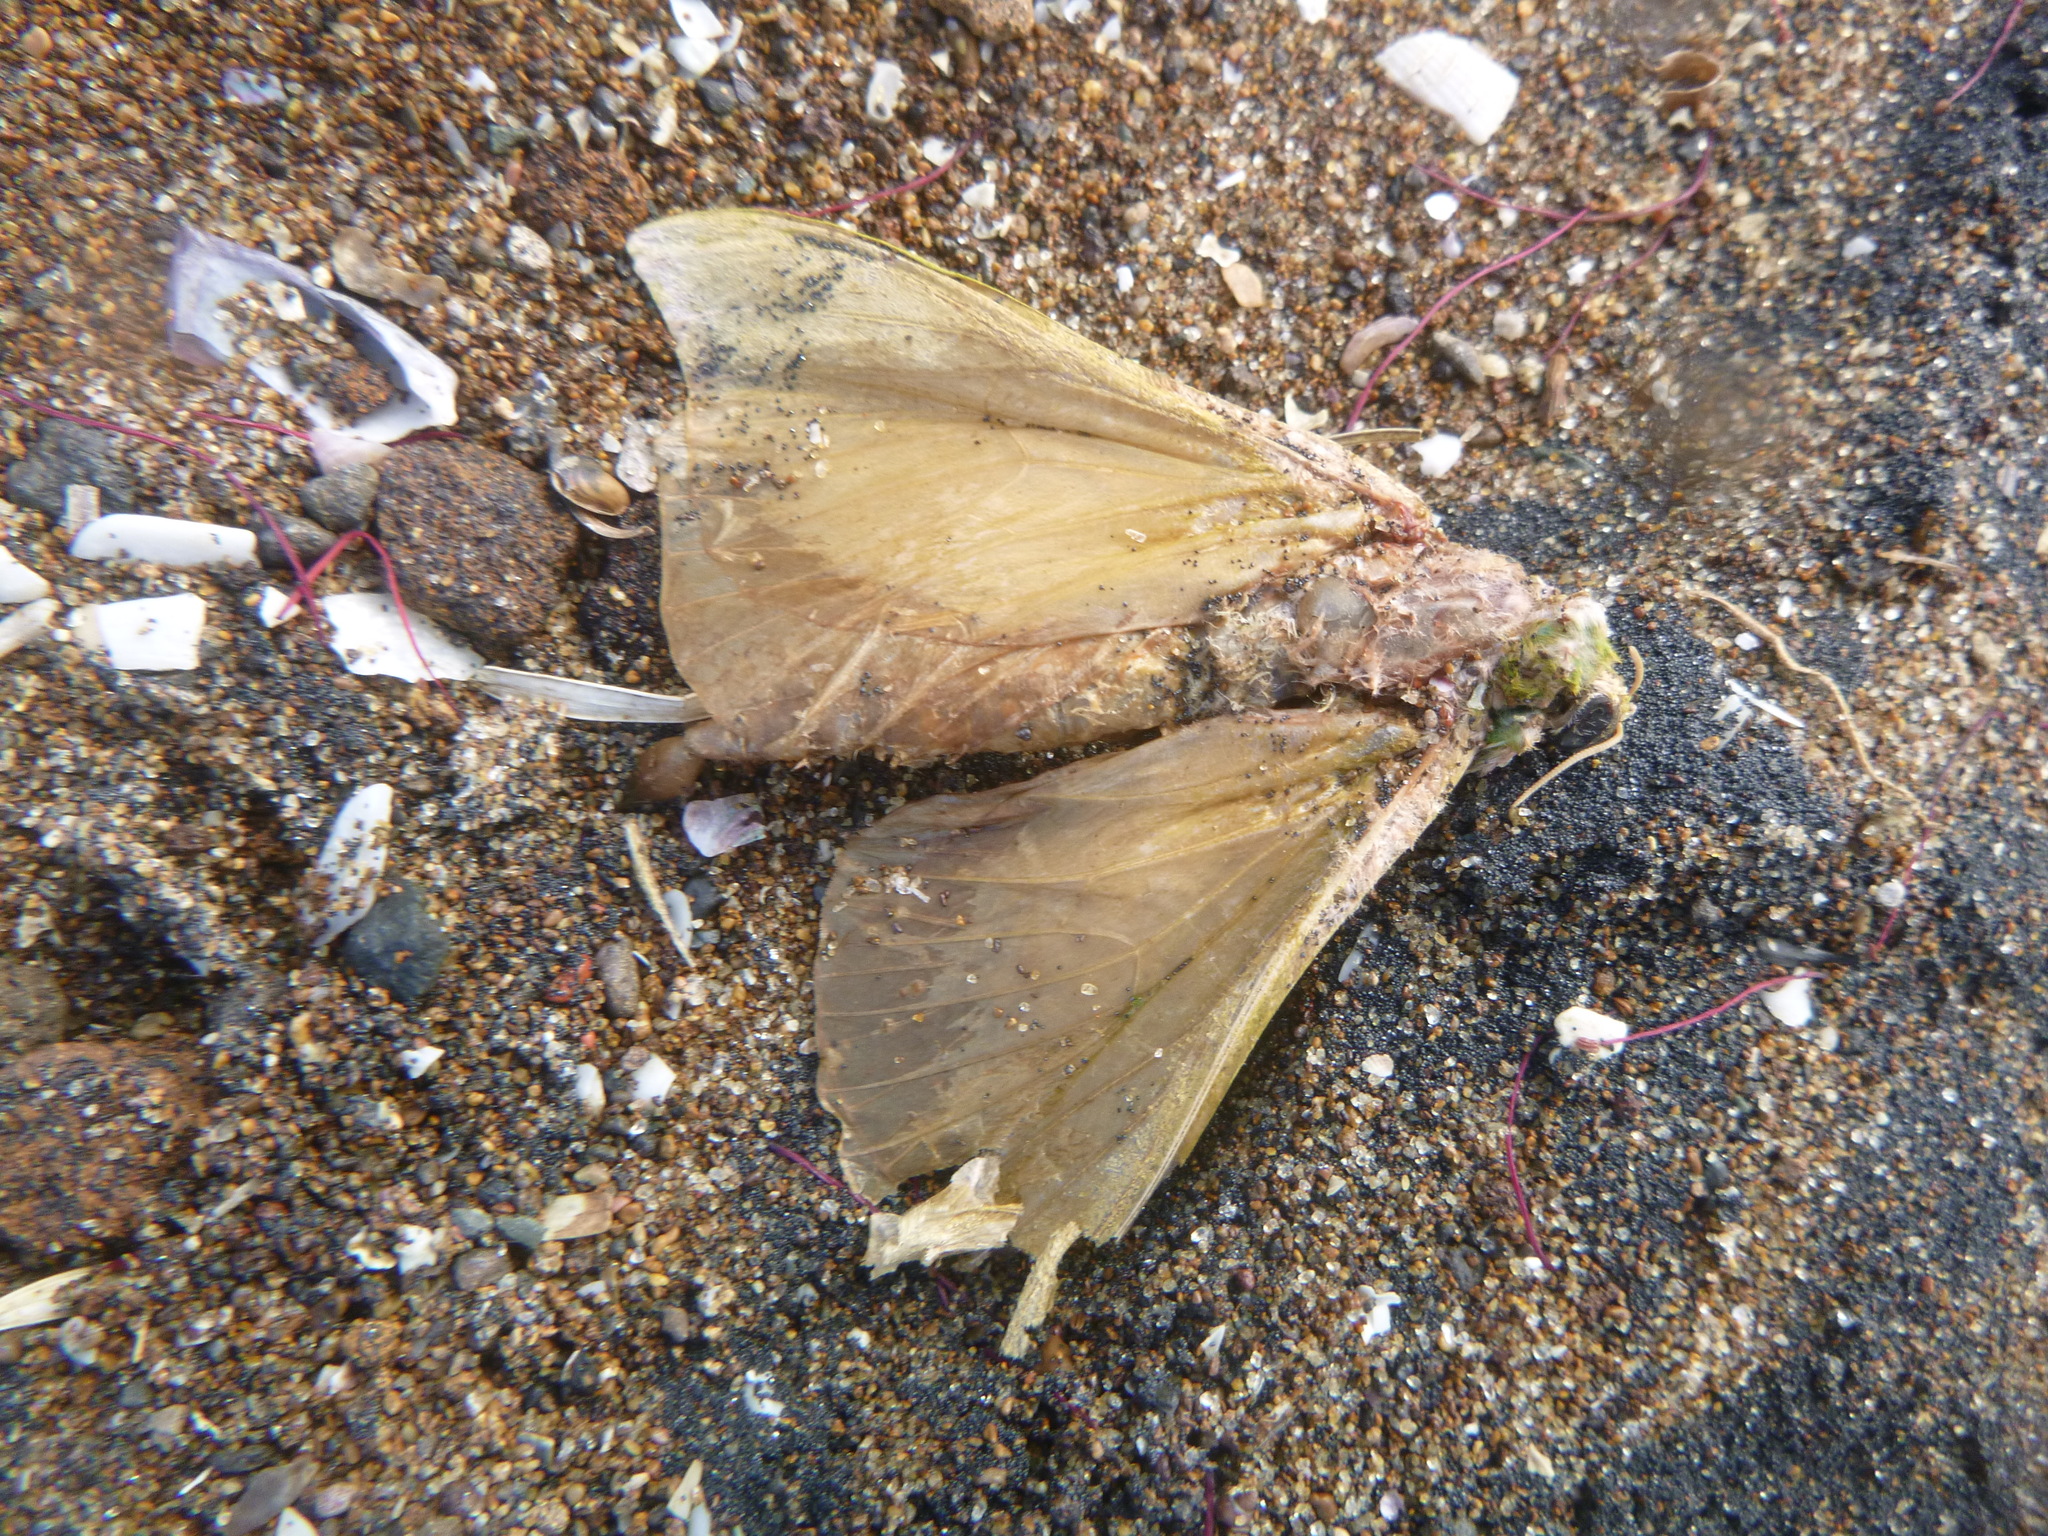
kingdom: Animalia
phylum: Arthropoda
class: Insecta
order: Lepidoptera
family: Hepialidae
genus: Aenetus
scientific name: Aenetus virescens
